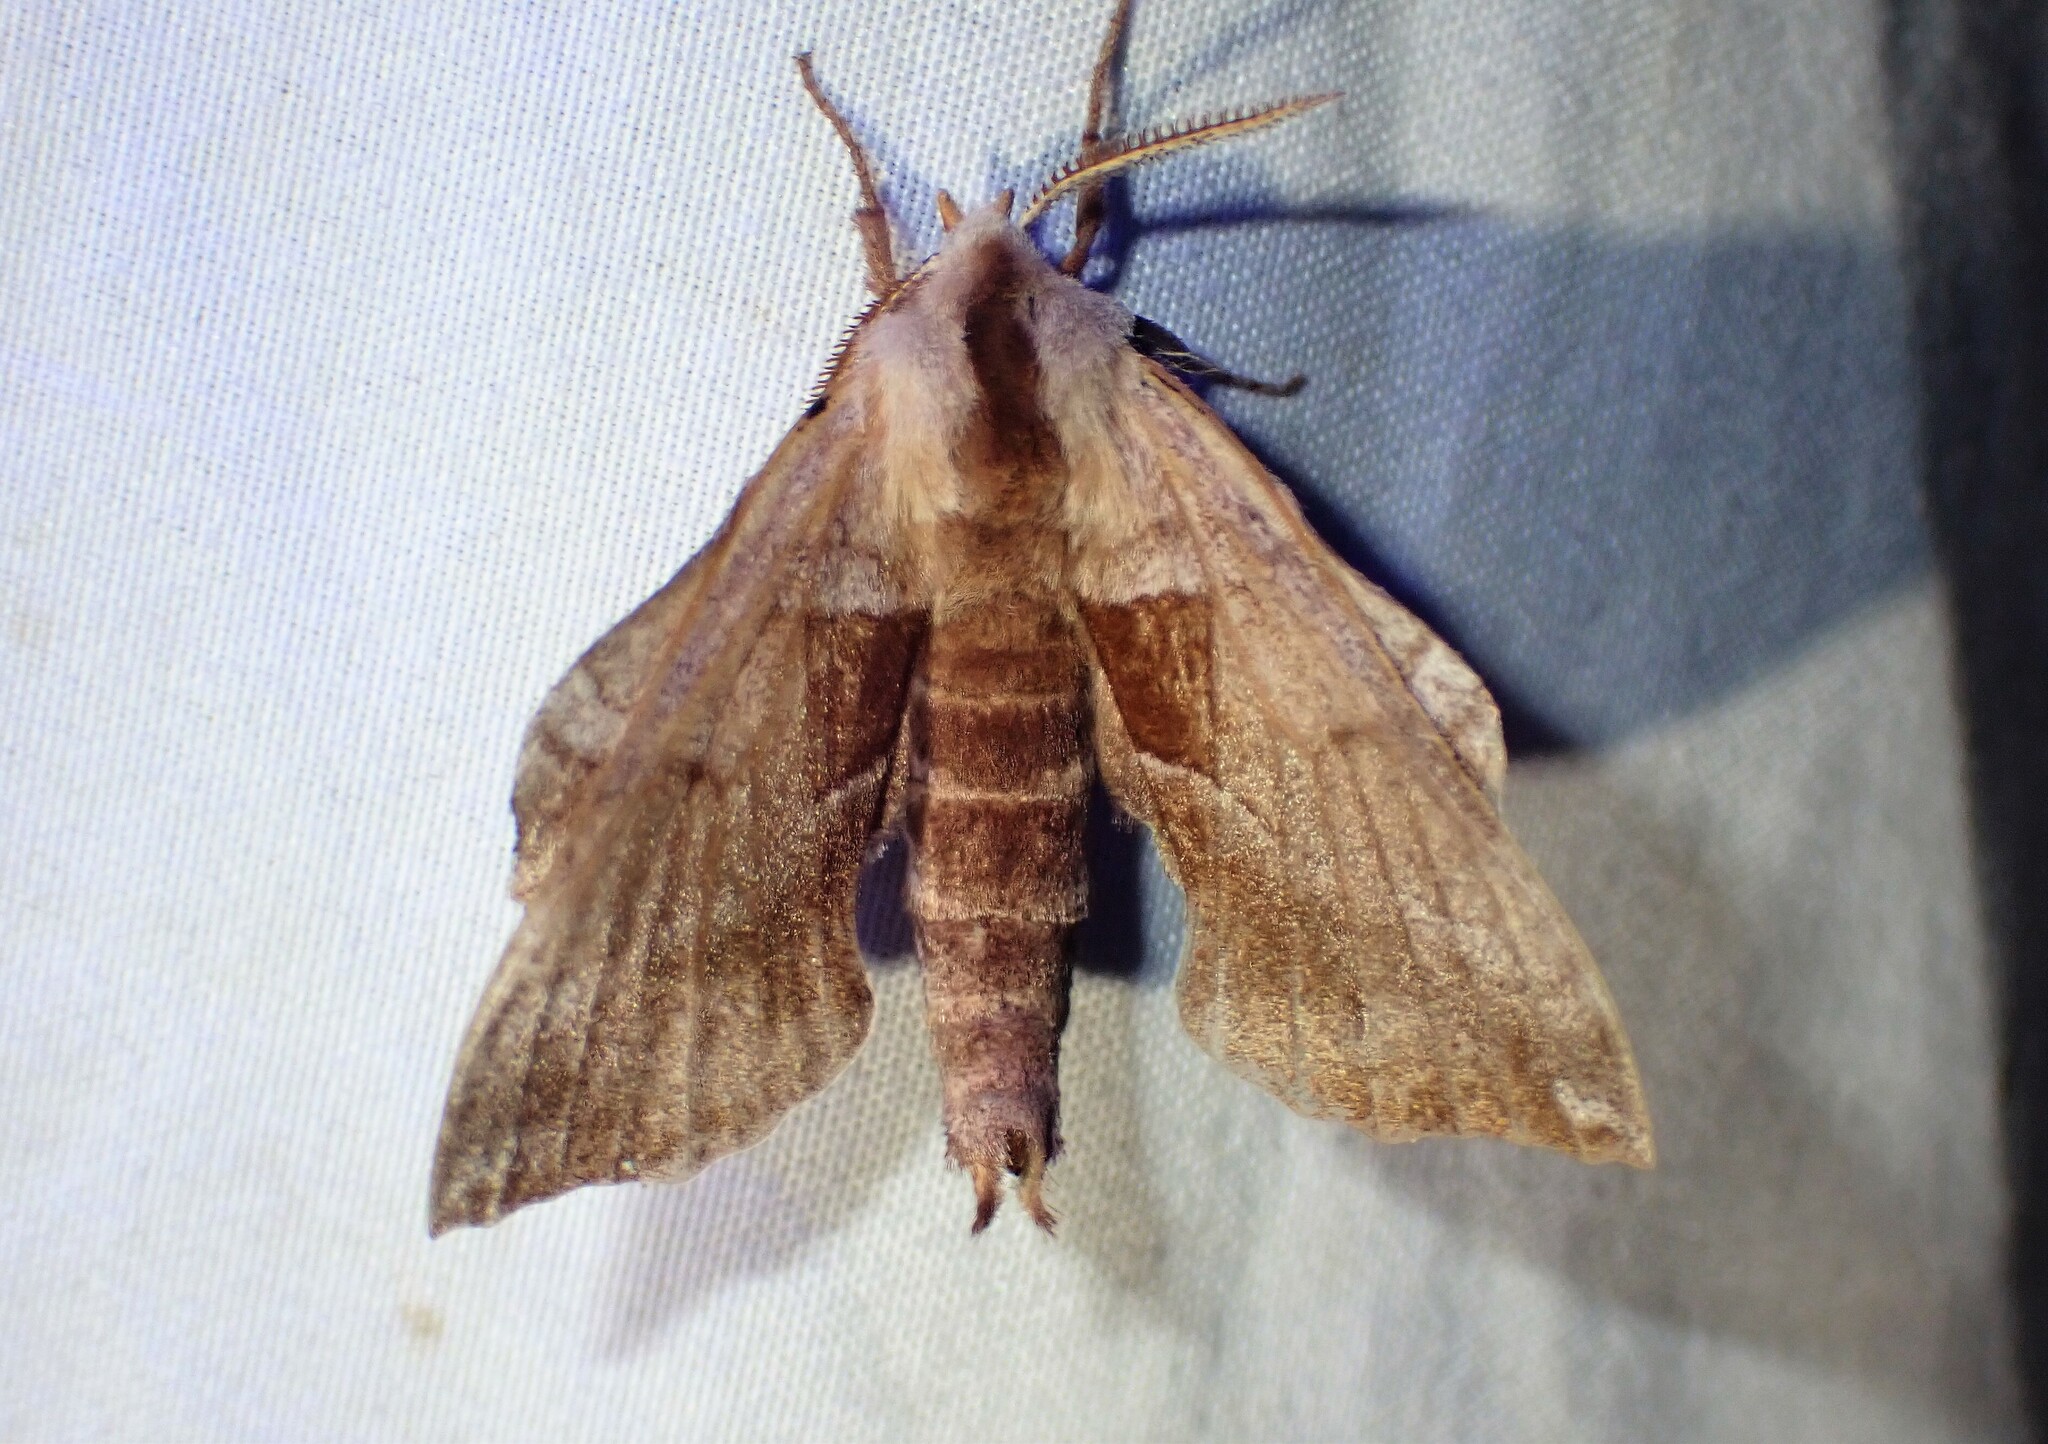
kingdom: Animalia
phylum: Arthropoda
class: Insecta
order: Lepidoptera
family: Sphingidae
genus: Amorpha
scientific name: Amorpha juglandis
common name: Walnut sphinx
